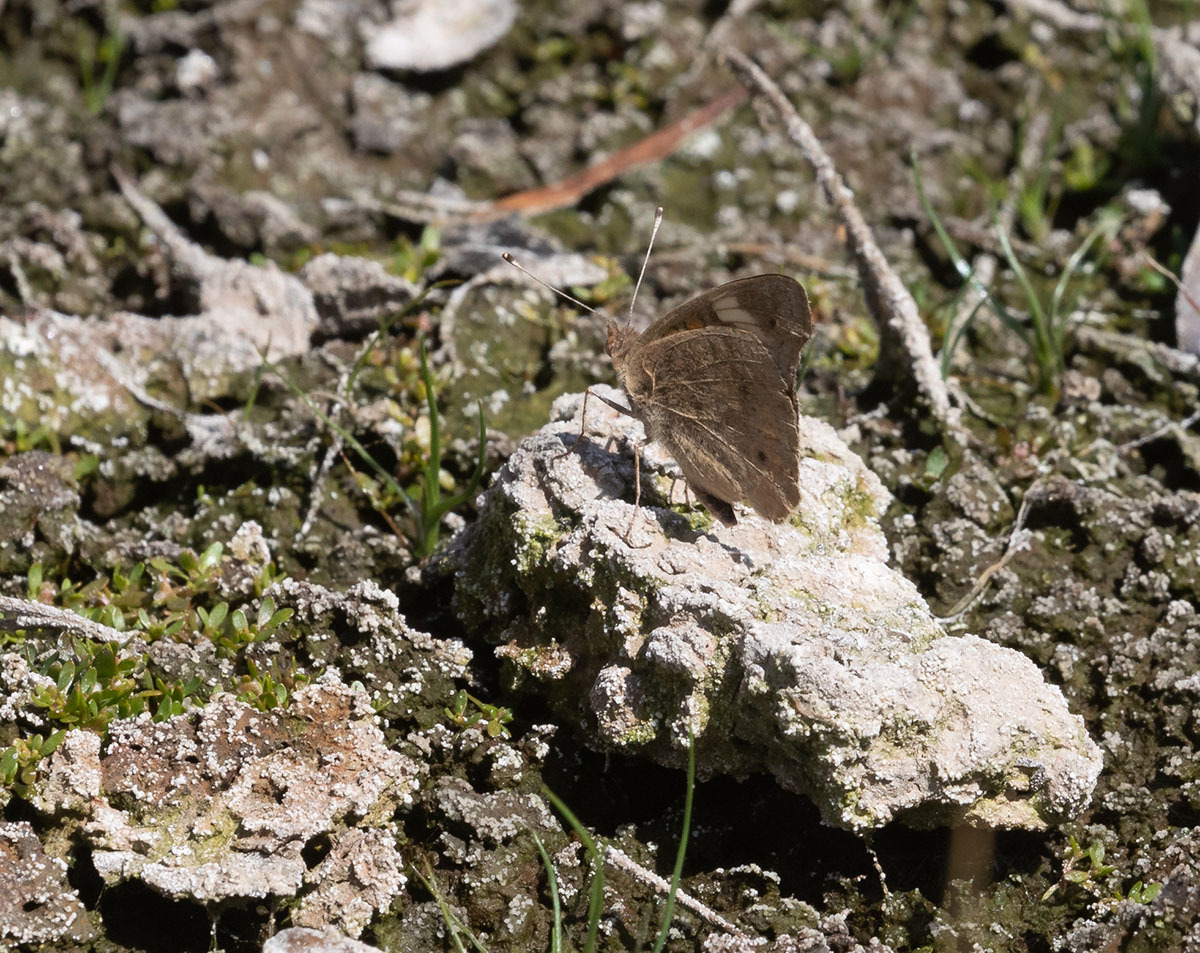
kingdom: Animalia
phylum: Arthropoda
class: Insecta
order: Lepidoptera
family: Nymphalidae
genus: Junonia
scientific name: Junonia grisea
